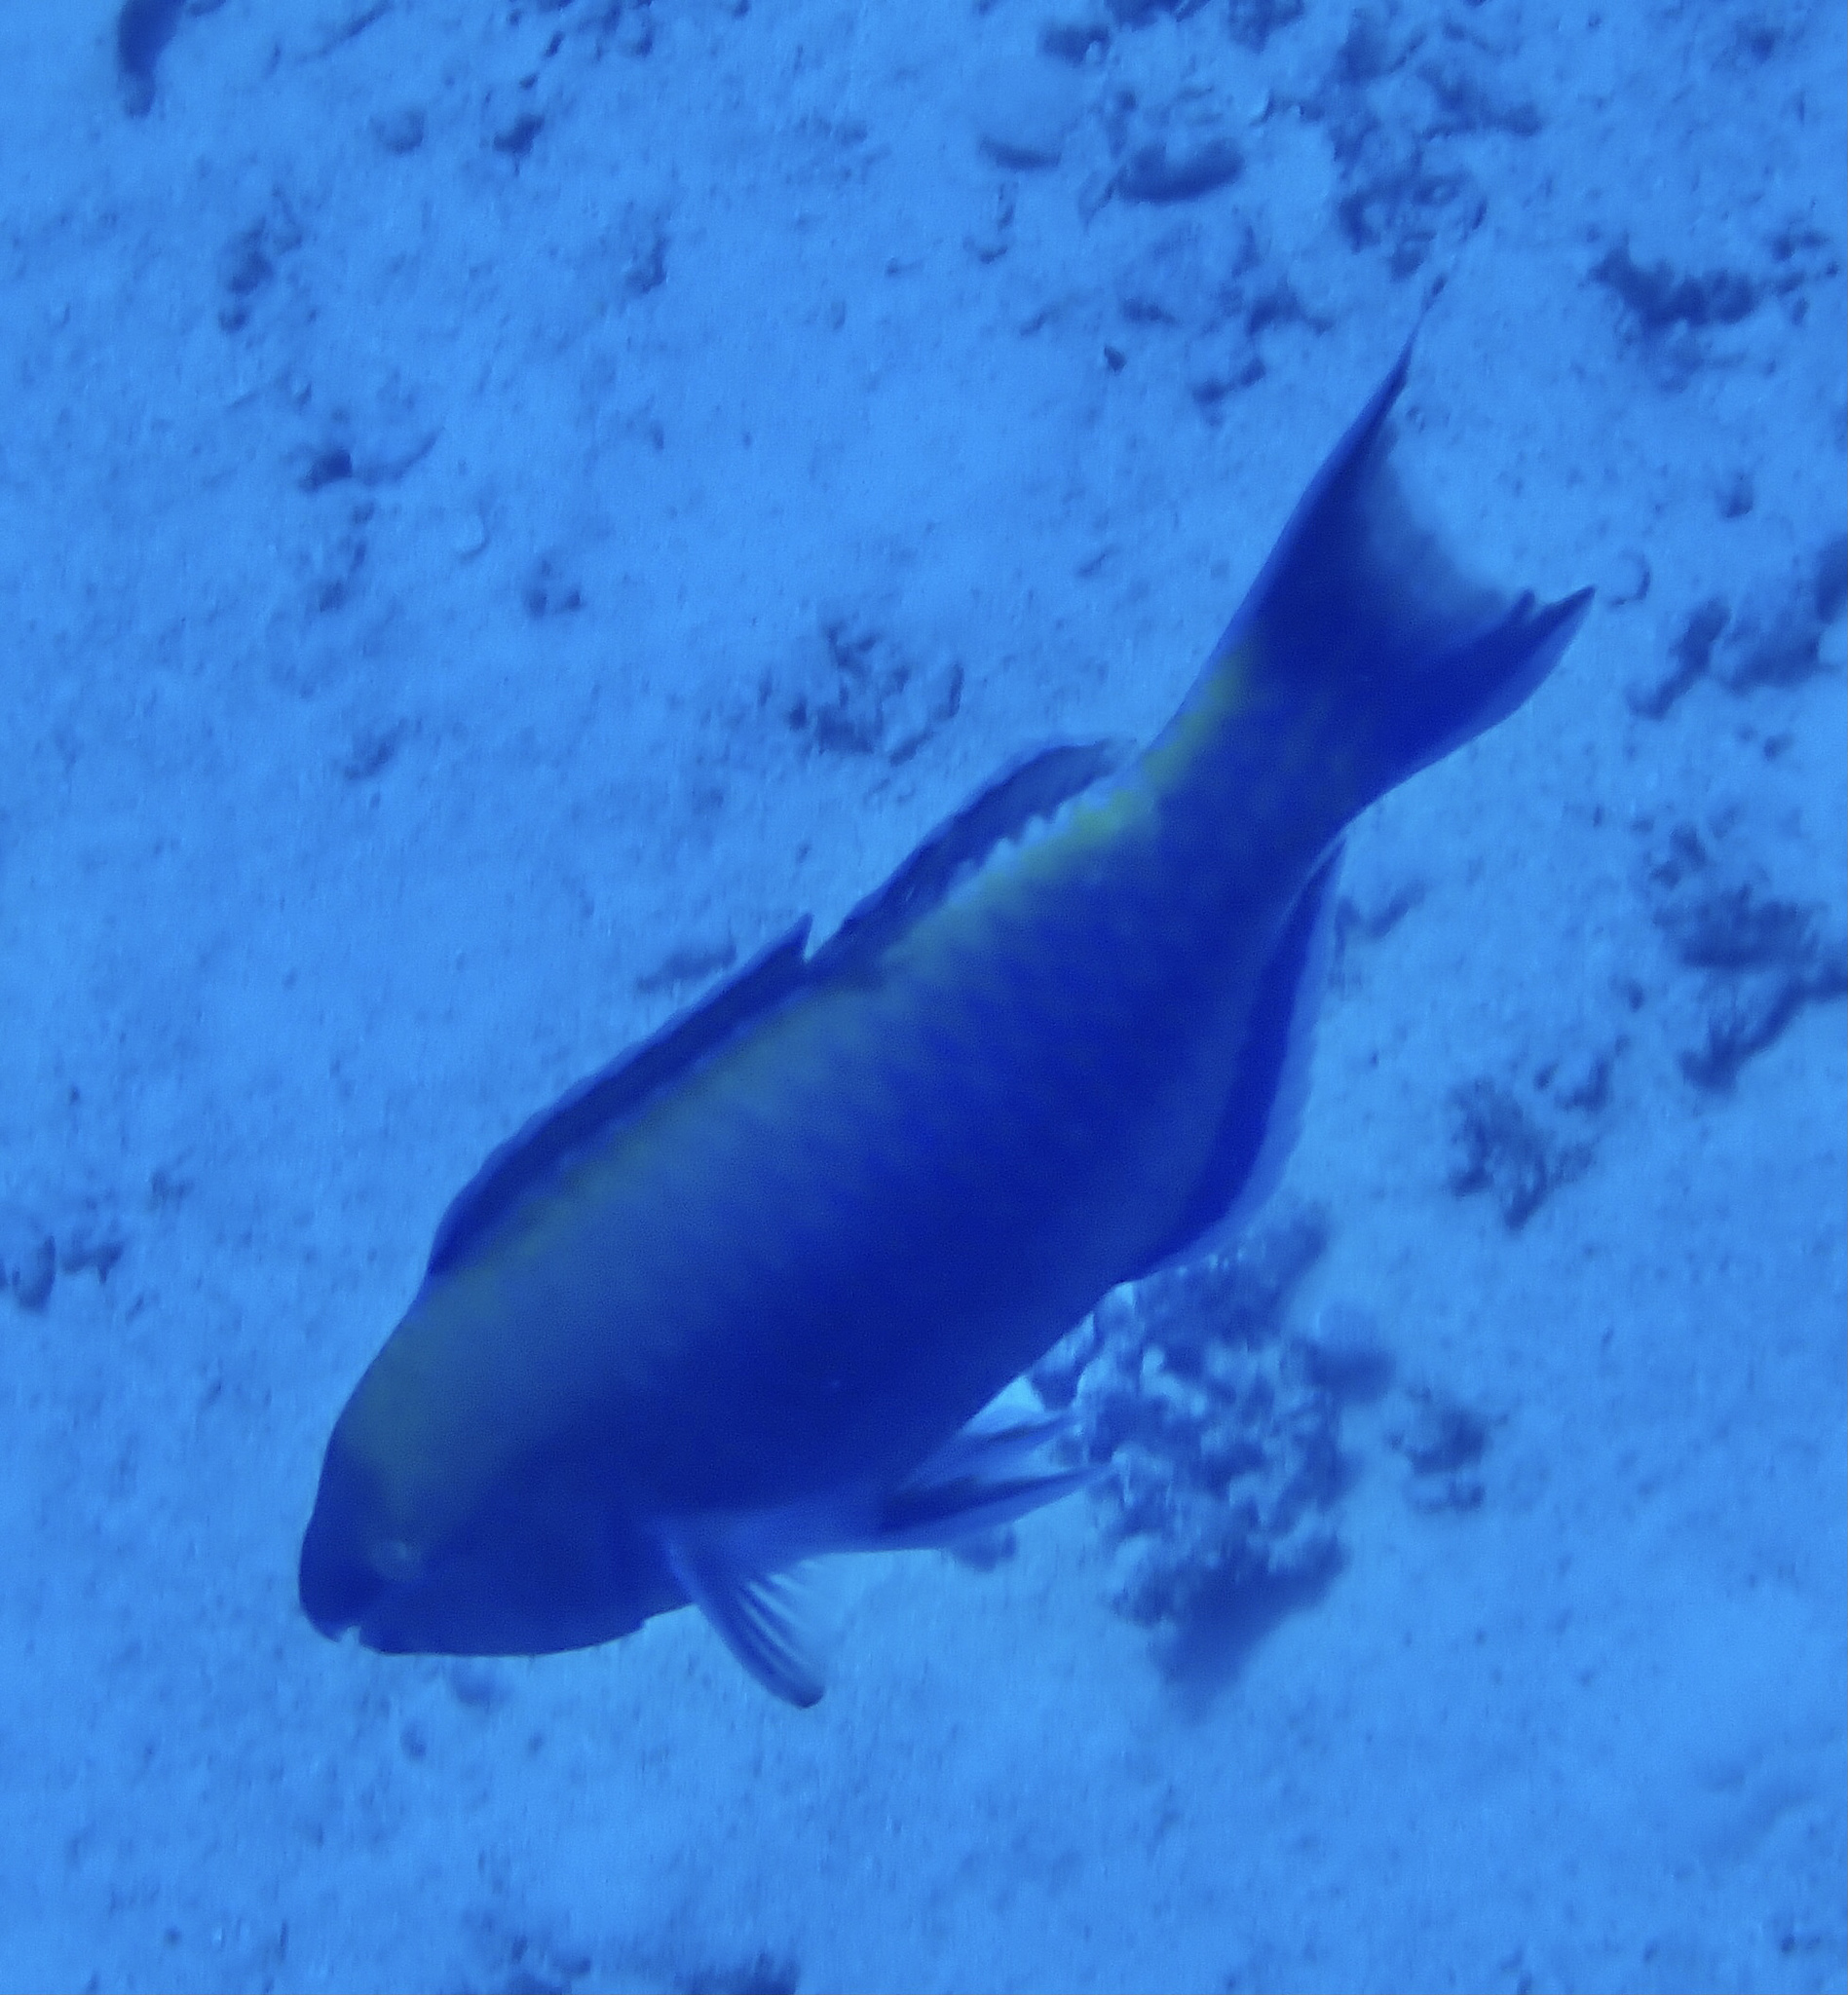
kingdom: Animalia
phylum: Chordata
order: Perciformes
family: Scaridae
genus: Scarus
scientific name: Scarus psittacus
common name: Palenose parrotfish
